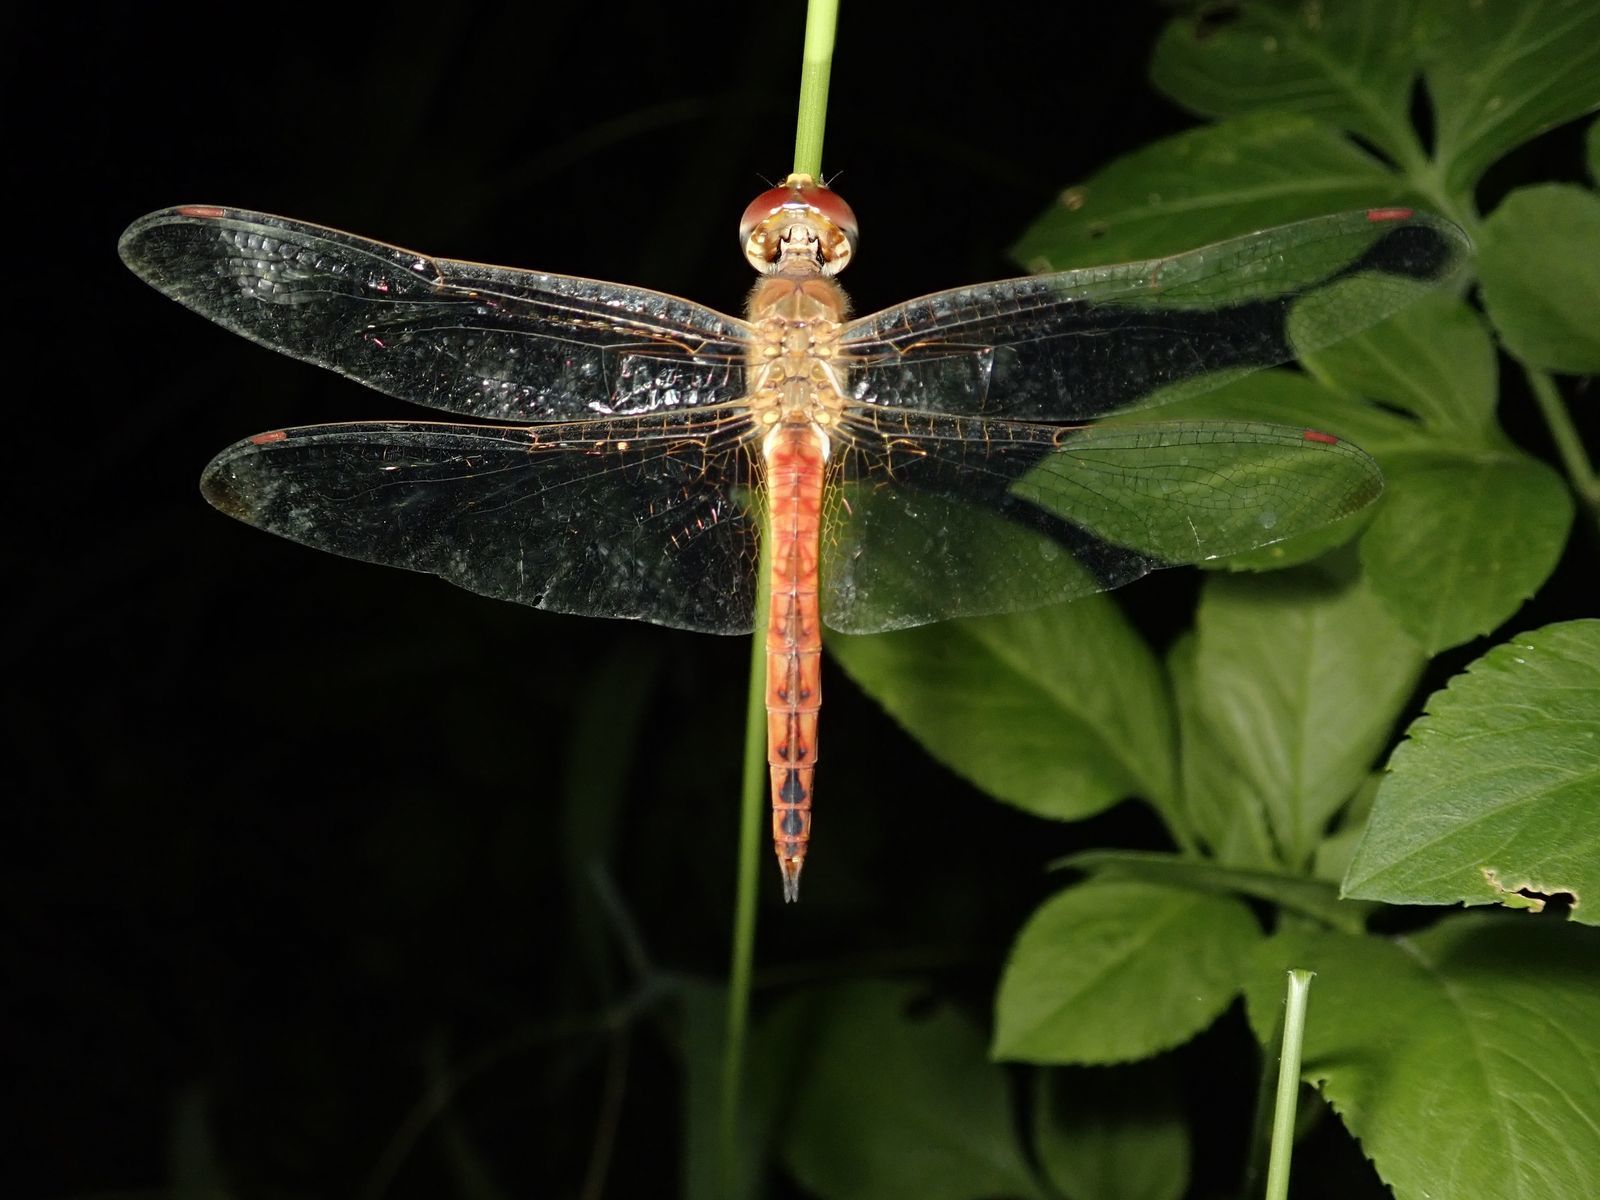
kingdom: Animalia
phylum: Arthropoda
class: Insecta
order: Odonata
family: Libellulidae
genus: Pantala
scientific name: Pantala flavescens
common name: Wandering glider
